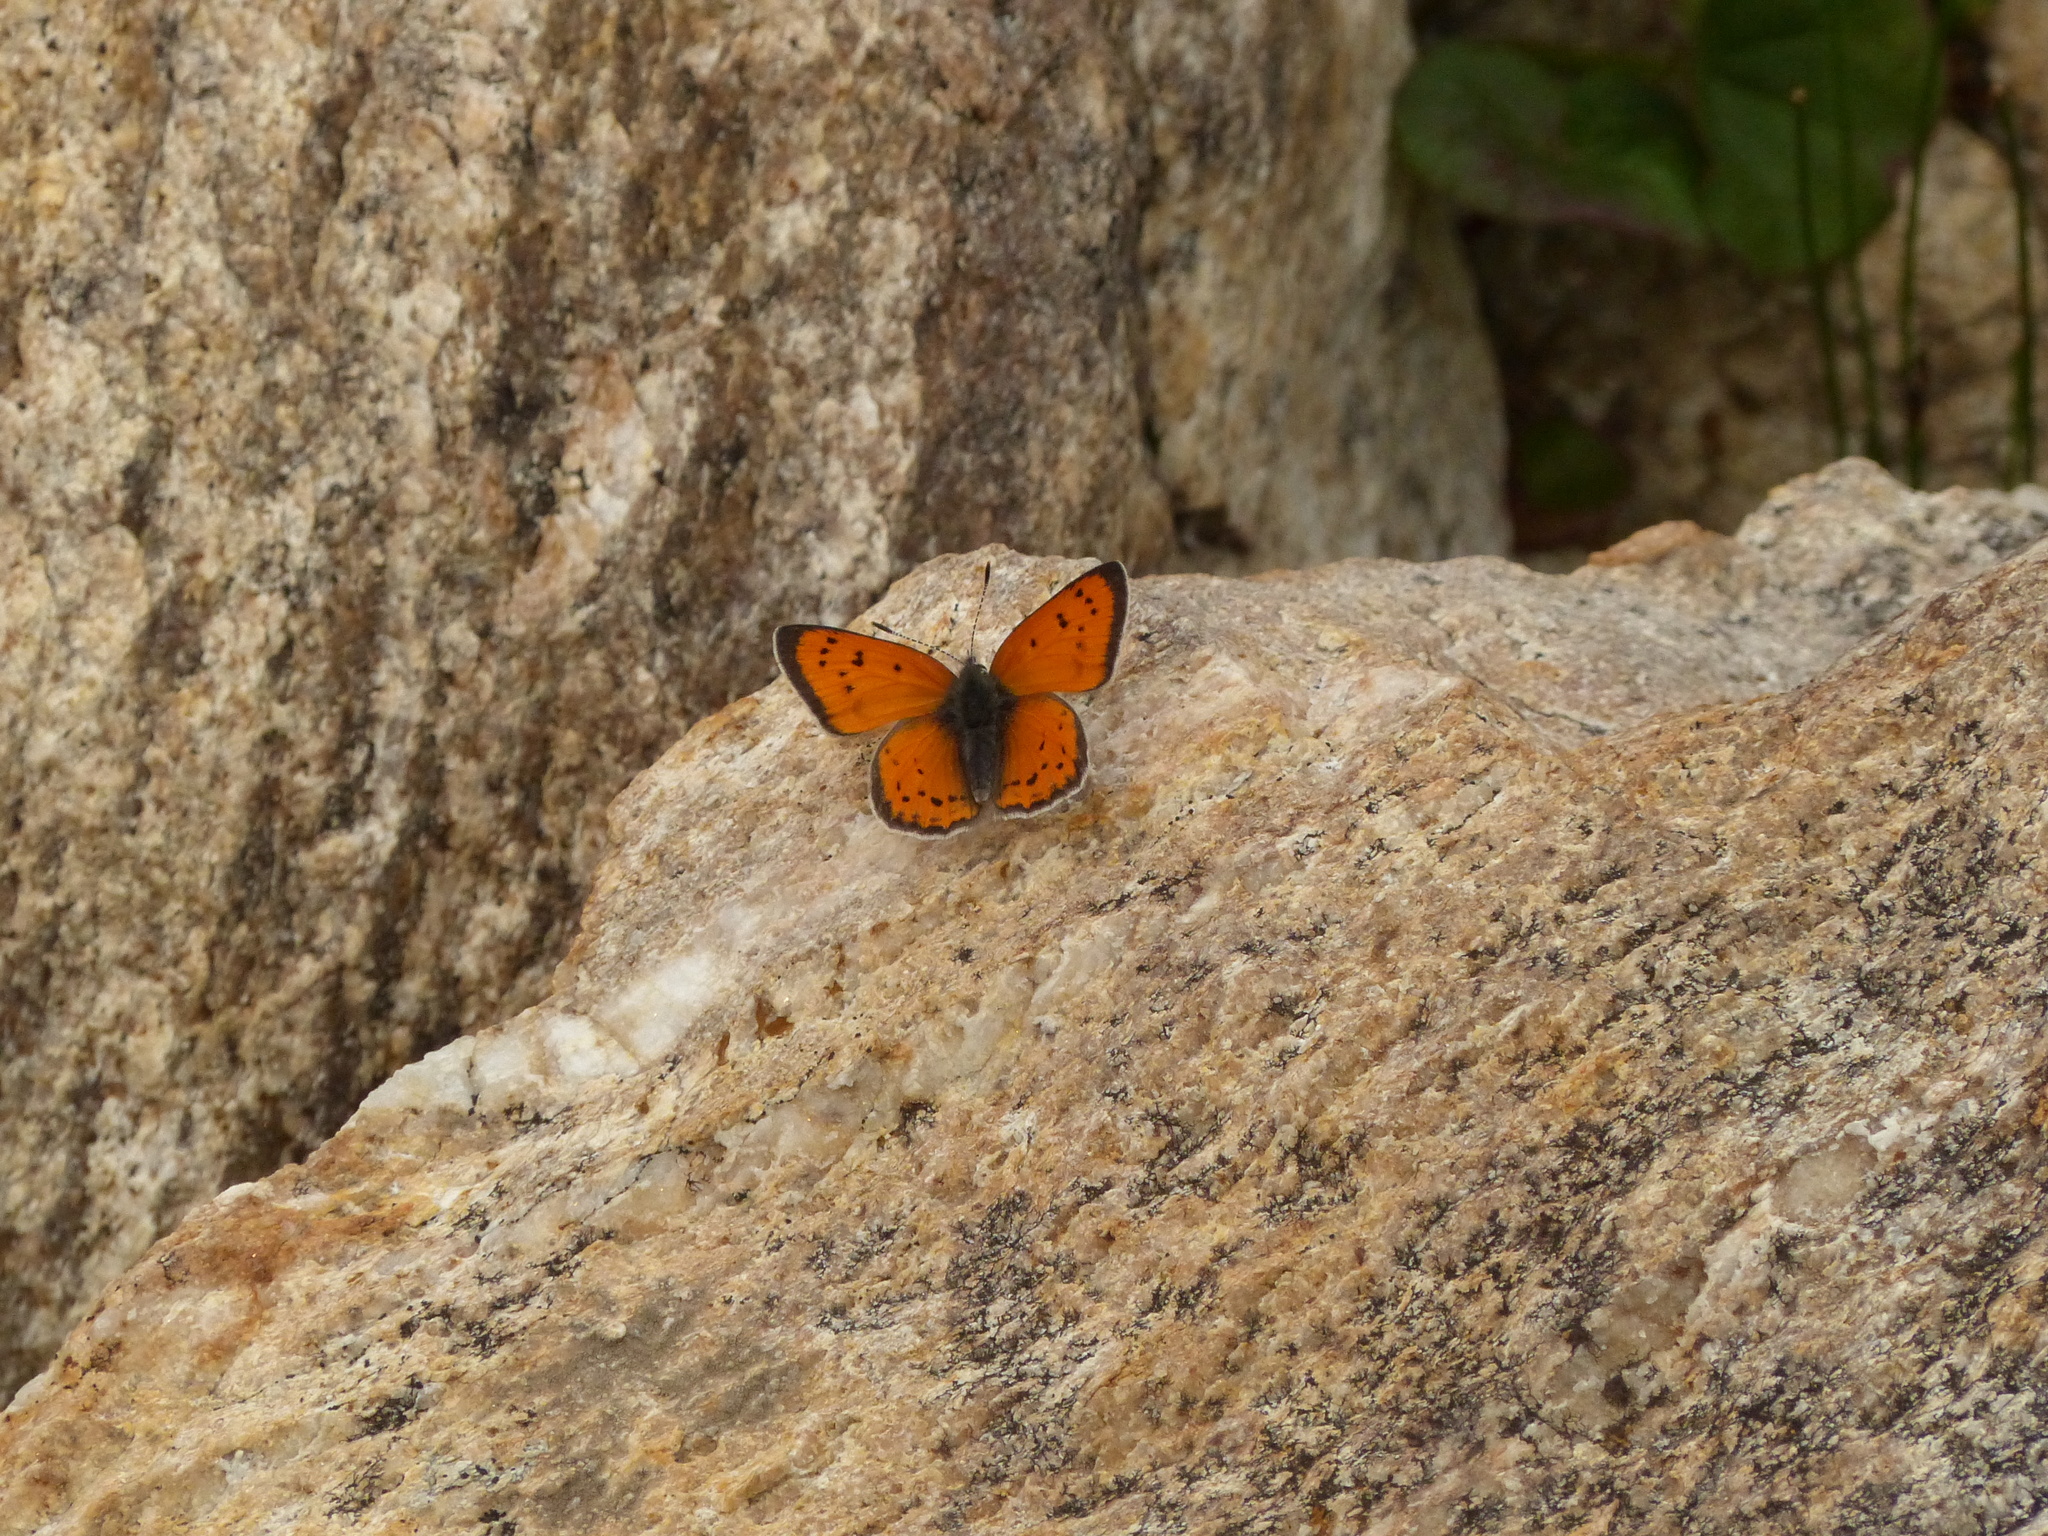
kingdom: Animalia
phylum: Arthropoda
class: Insecta
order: Lepidoptera
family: Lycaenidae
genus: Lycaena
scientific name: Lycaena cupreus
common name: Lustrous copper
